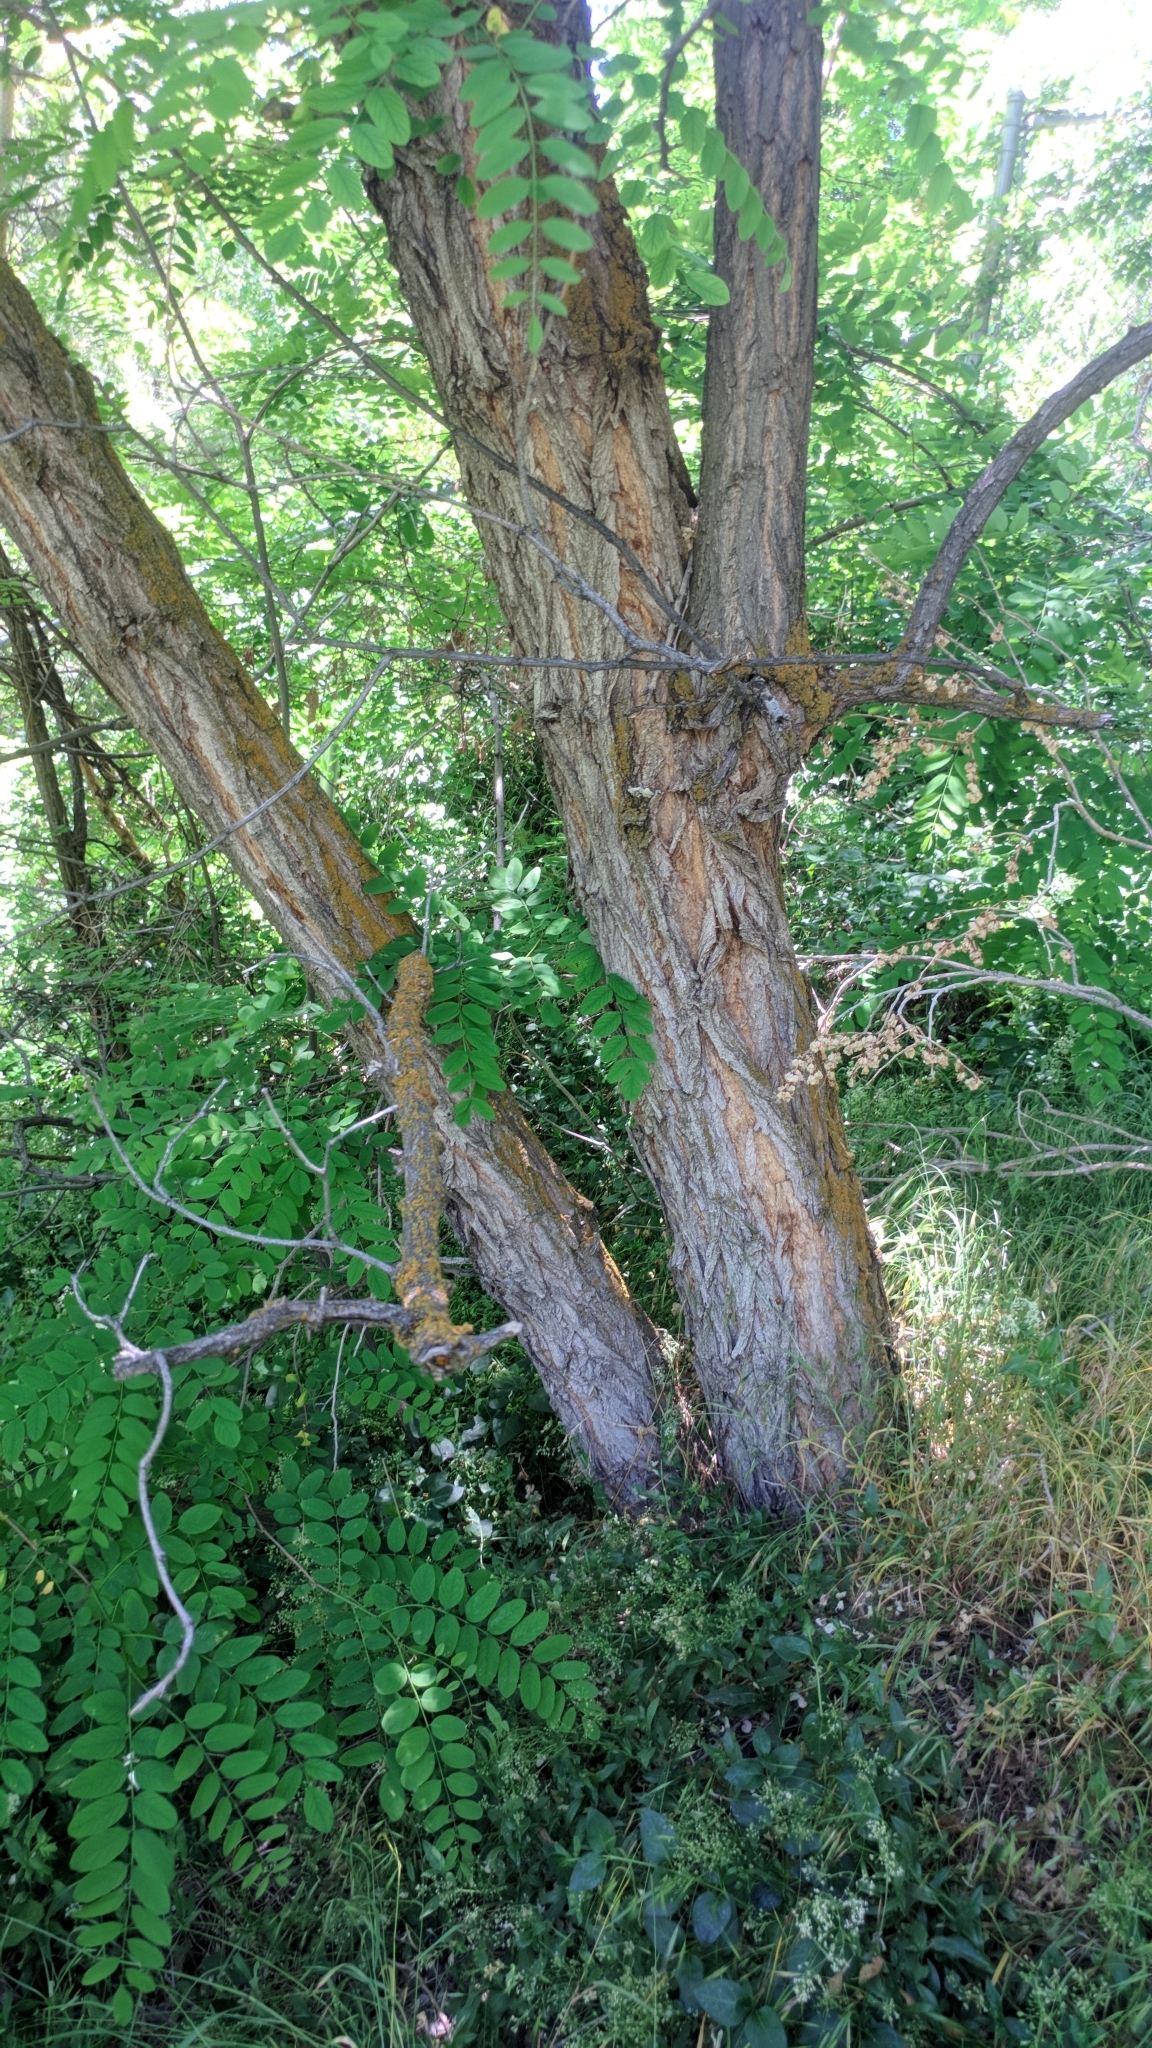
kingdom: Plantae
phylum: Tracheophyta
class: Magnoliopsida
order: Fabales
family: Fabaceae
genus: Robinia
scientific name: Robinia pseudoacacia
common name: Black locust
